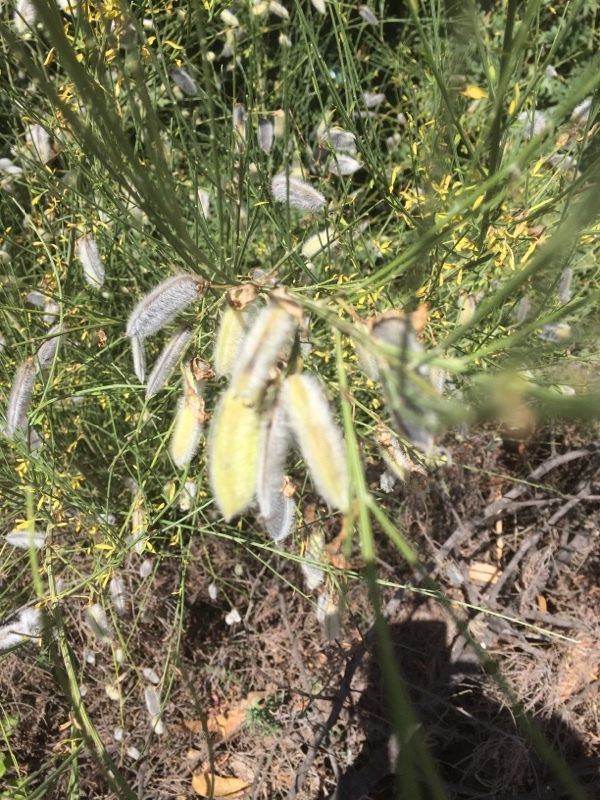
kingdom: Plantae
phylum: Tracheophyta
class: Magnoliopsida
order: Fabales
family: Fabaceae
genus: Cytisus
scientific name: Cytisus striatus
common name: Hairy-fruited broom
